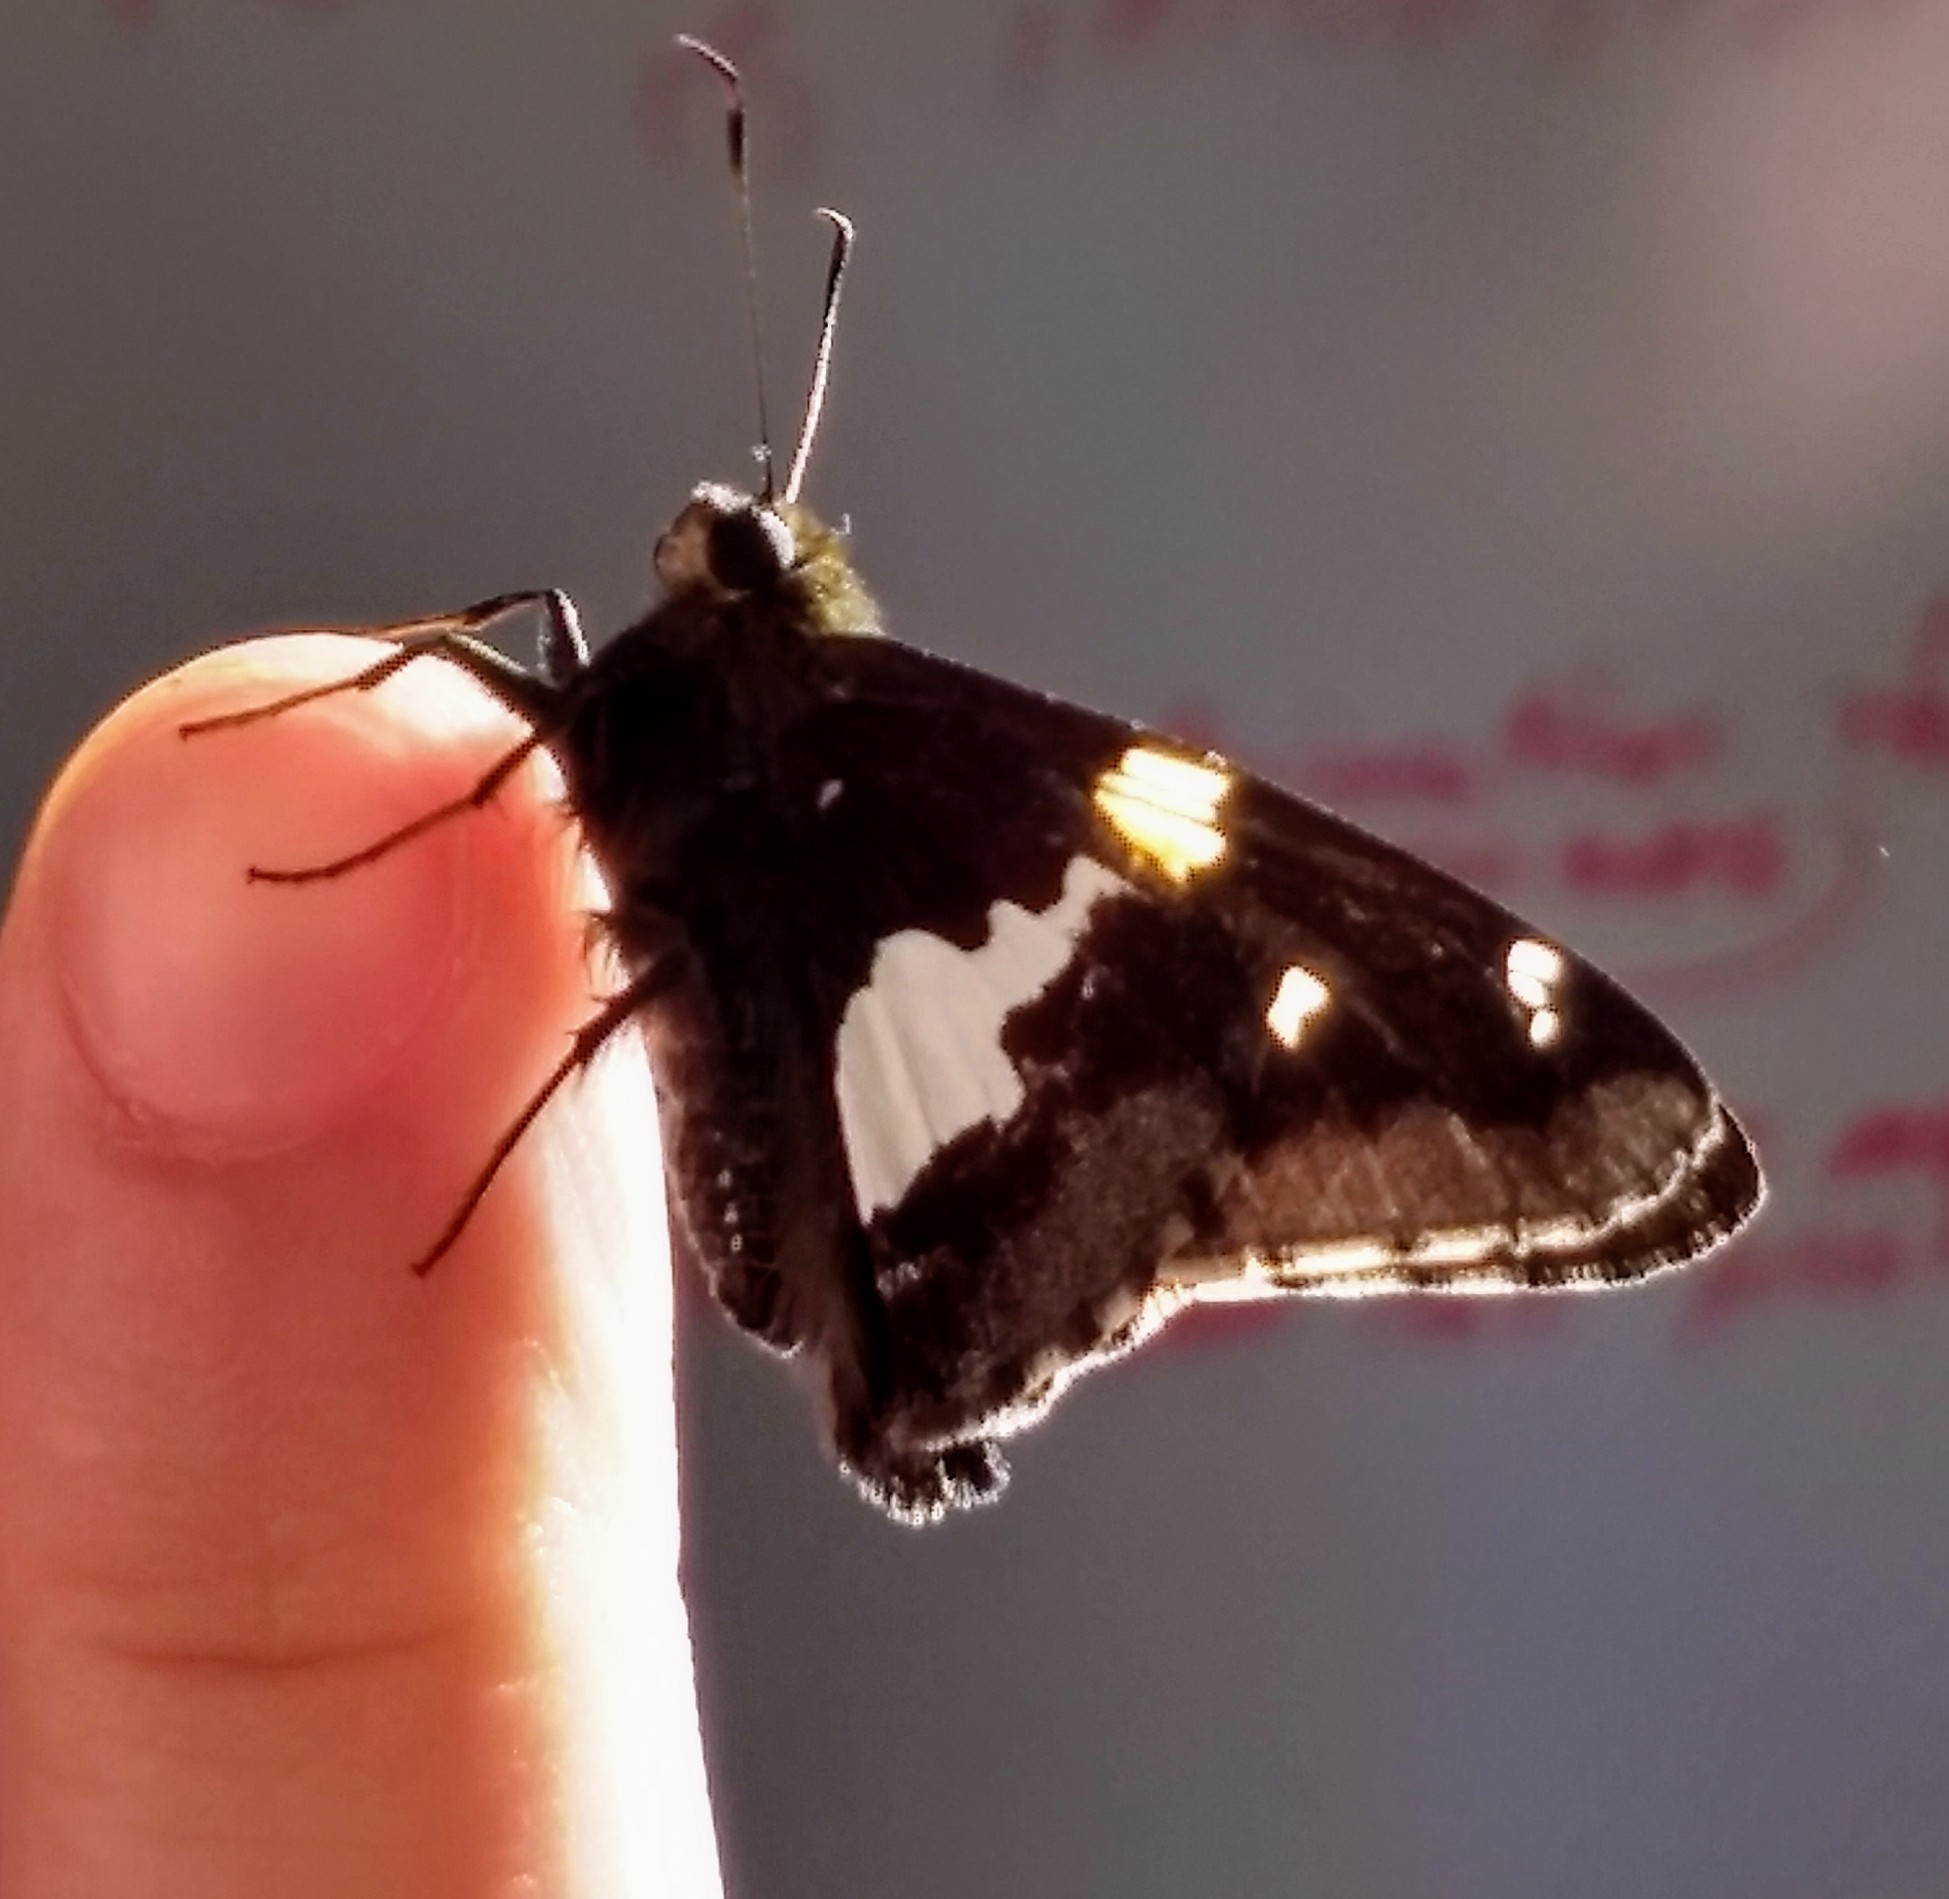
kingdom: Animalia
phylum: Arthropoda
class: Insecta
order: Lepidoptera
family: Hesperiidae
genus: Epargyreus
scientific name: Epargyreus clarus
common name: Silver-spotted skipper
